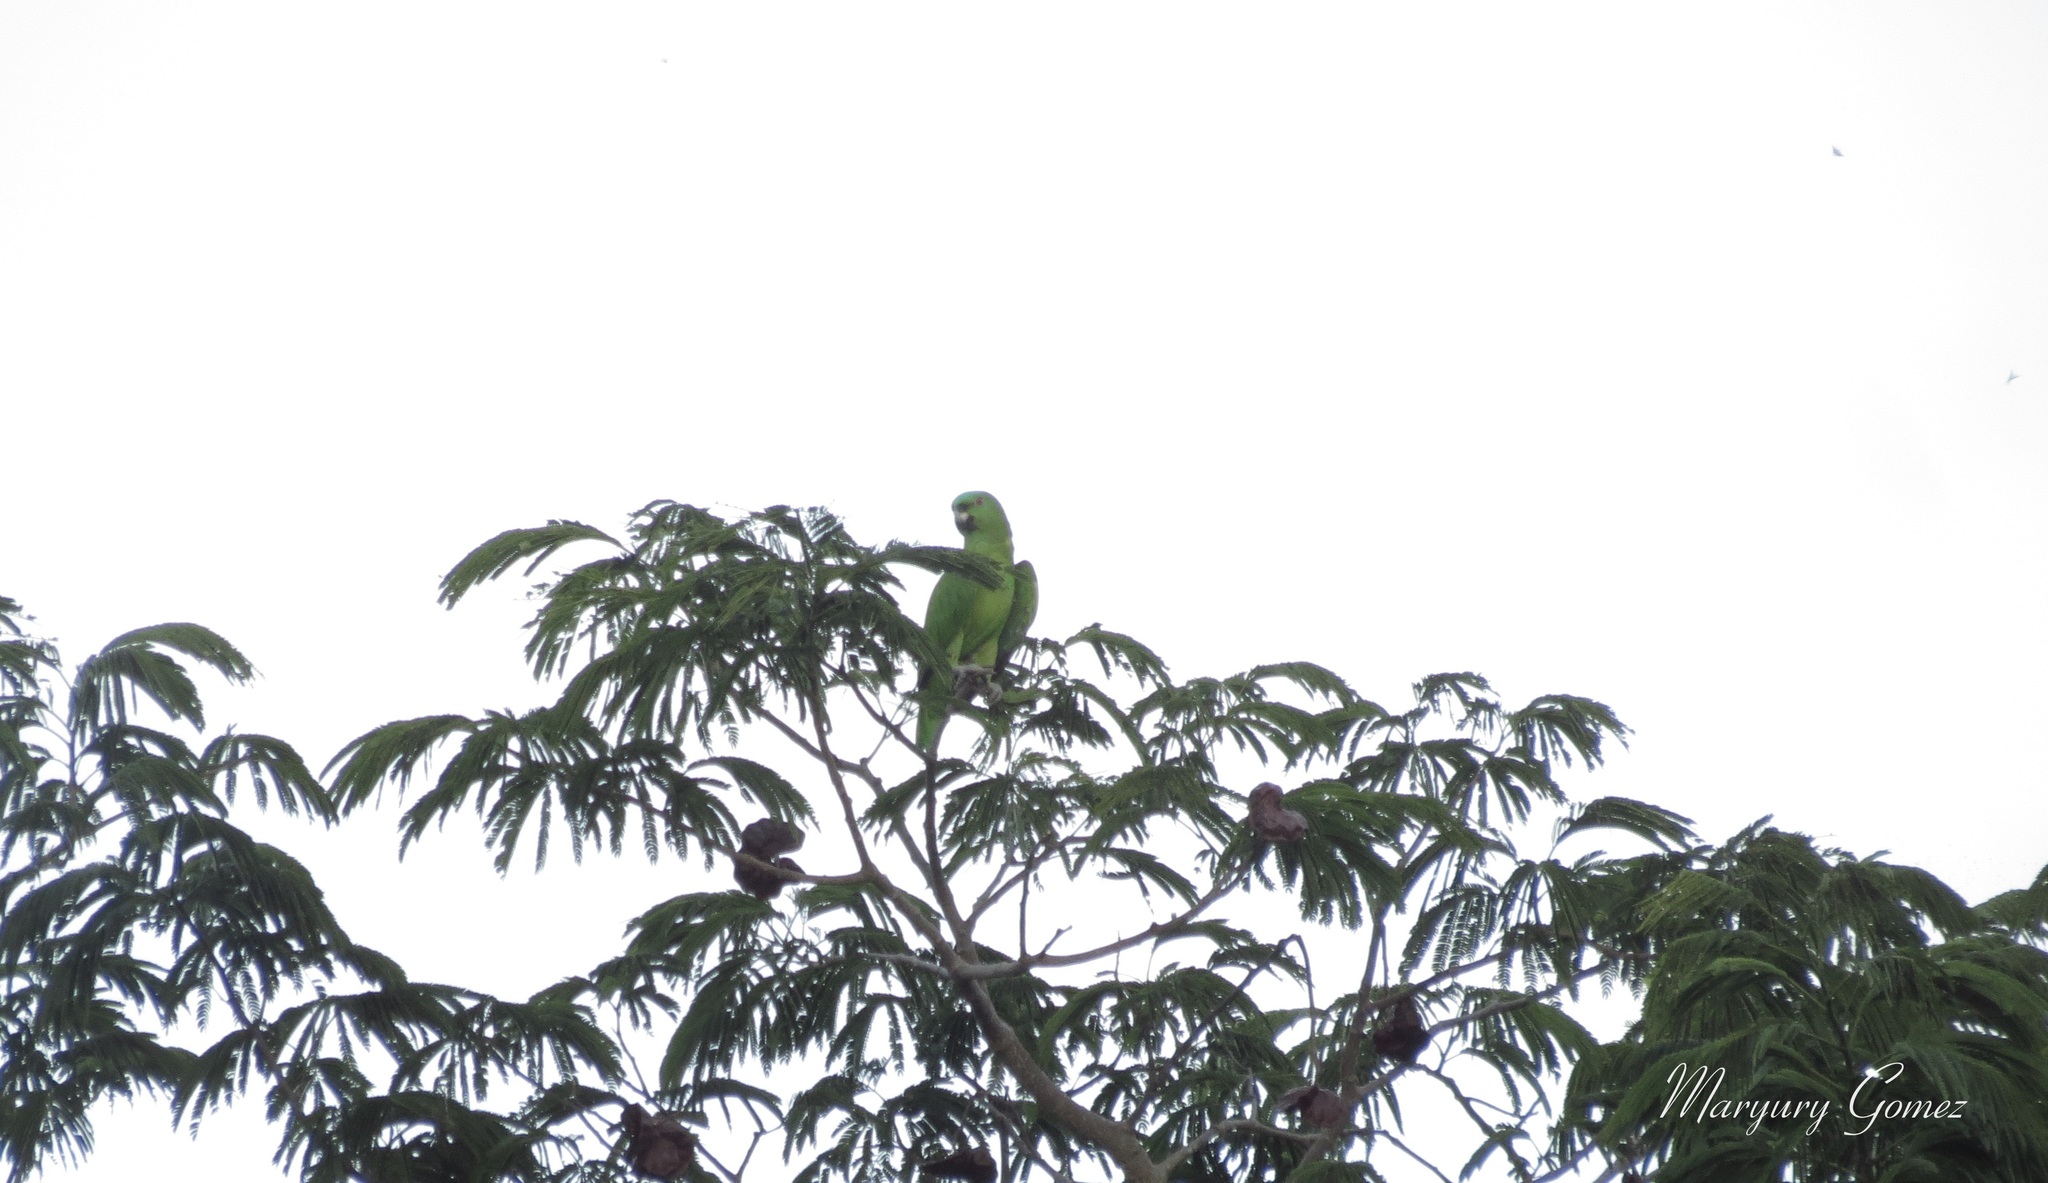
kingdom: Animalia
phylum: Chordata
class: Aves
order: Psittaciformes
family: Psittacidae
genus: Amazona
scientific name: Amazona auropalliata
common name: Yellow-naped amazon
